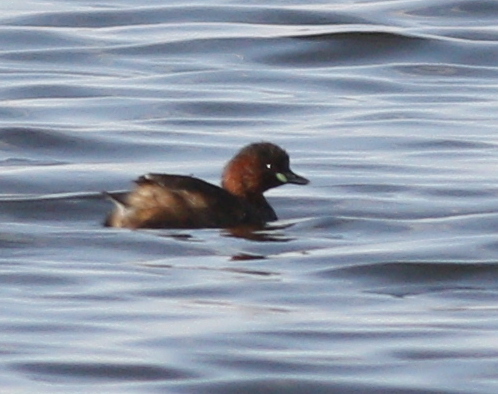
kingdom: Animalia
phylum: Chordata
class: Aves
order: Podicipediformes
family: Podicipedidae
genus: Tachybaptus
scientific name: Tachybaptus ruficollis
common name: Little grebe
